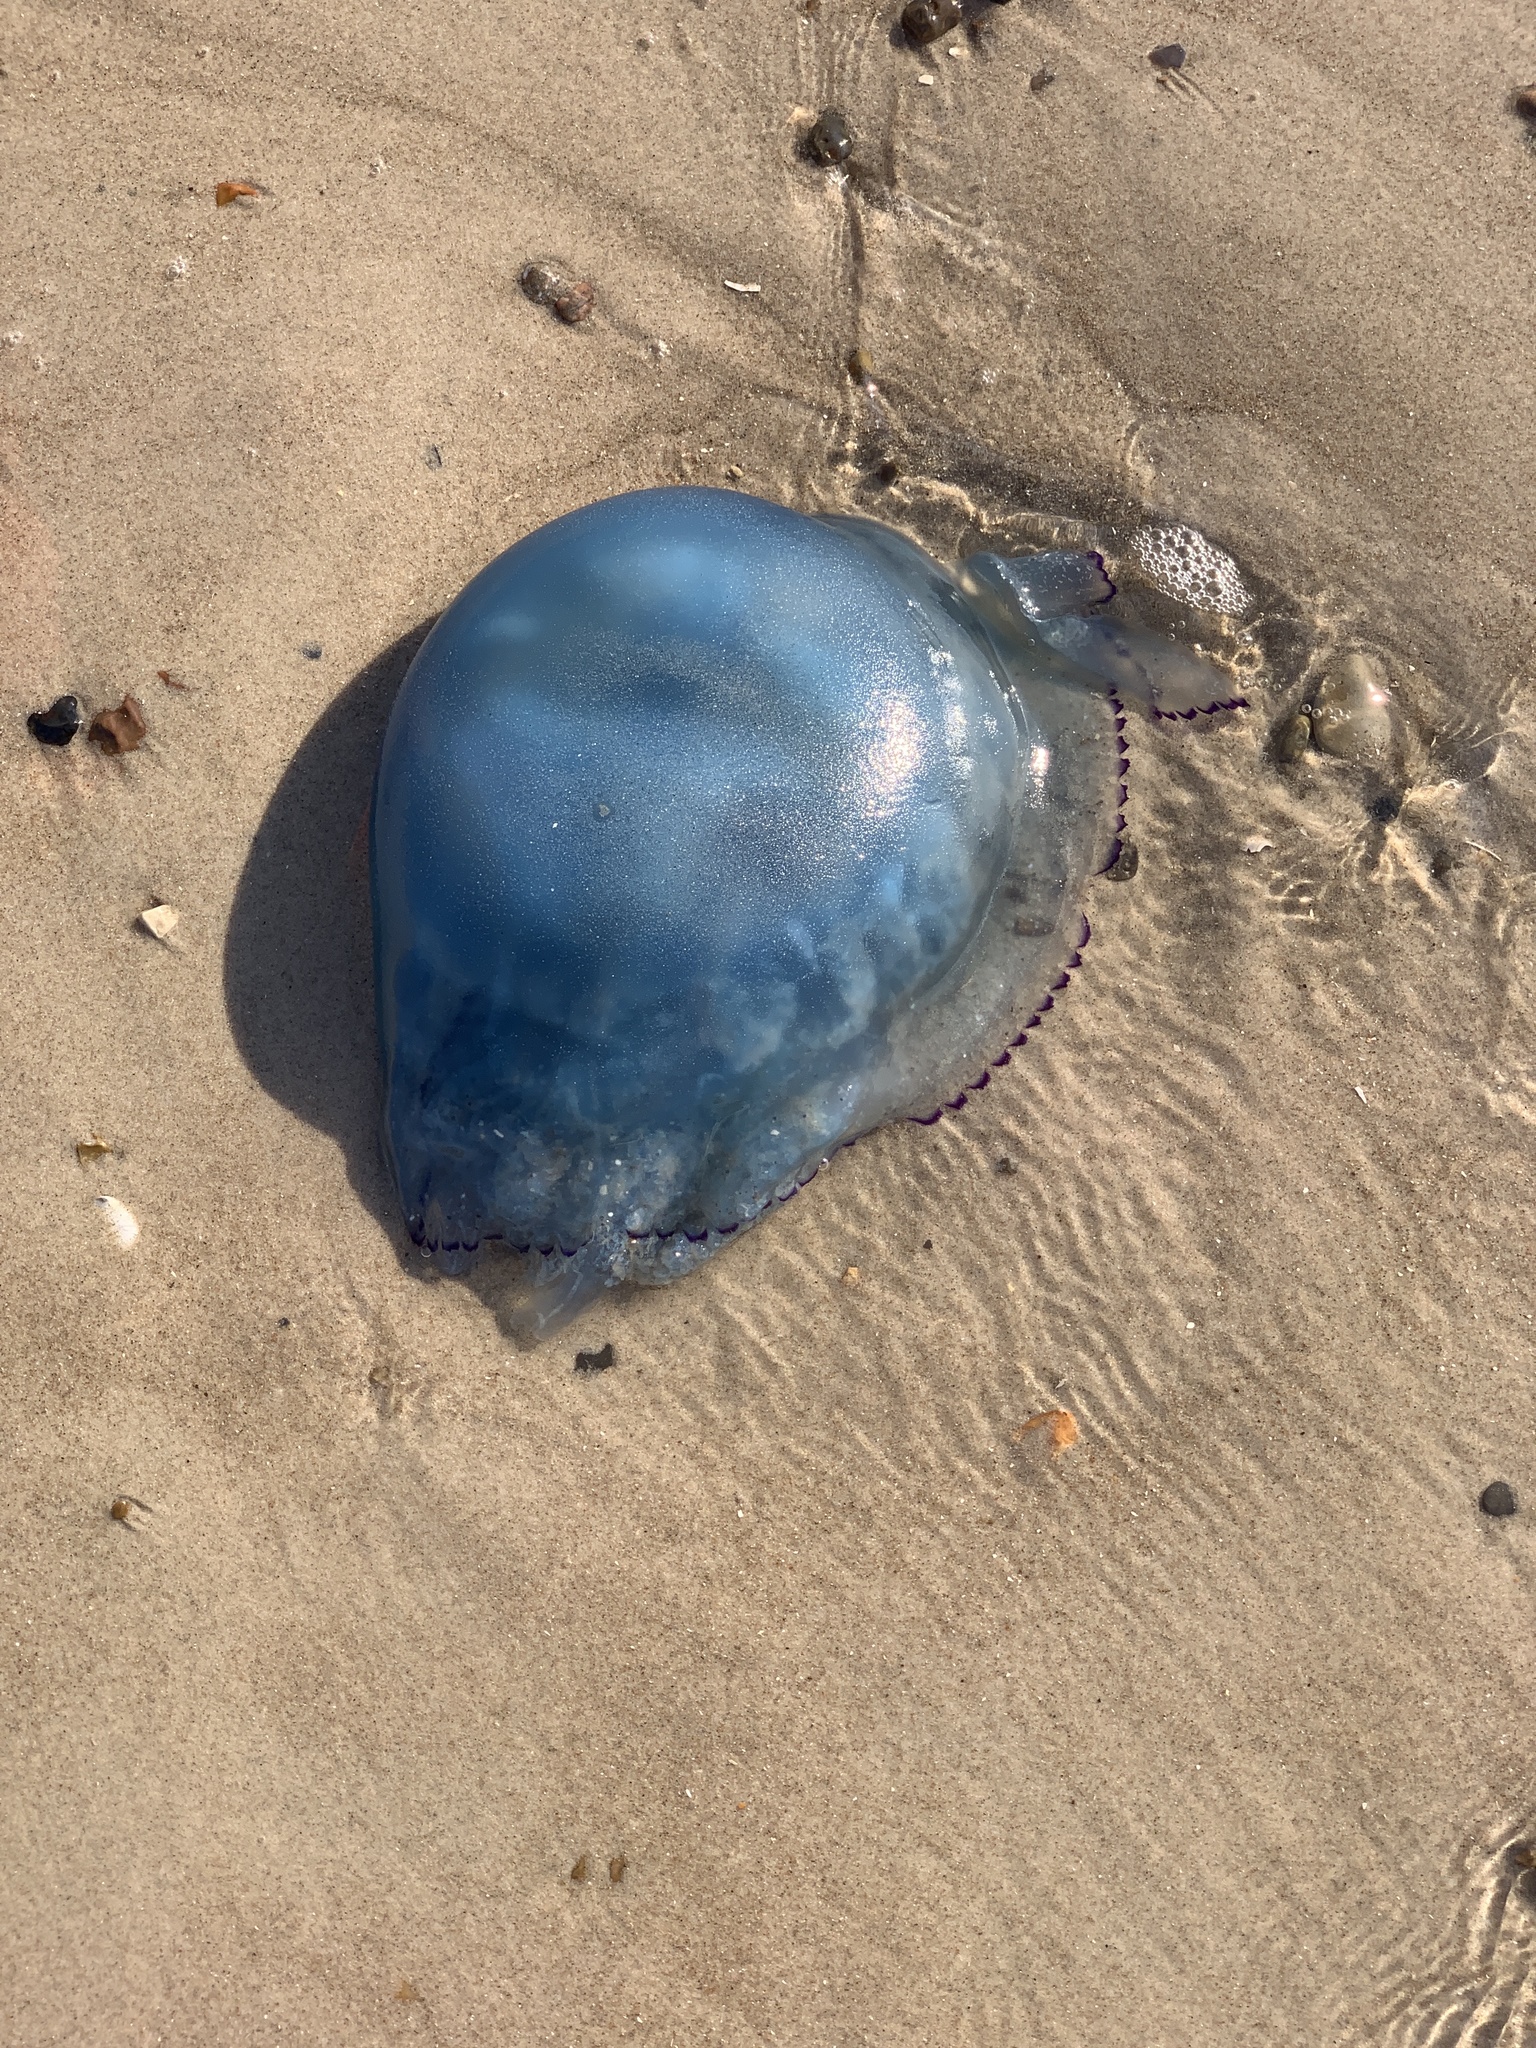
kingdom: Animalia
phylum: Cnidaria
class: Scyphozoa
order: Rhizostomeae
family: Rhizostomatidae
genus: Rhizostoma
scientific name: Rhizostoma octopus
